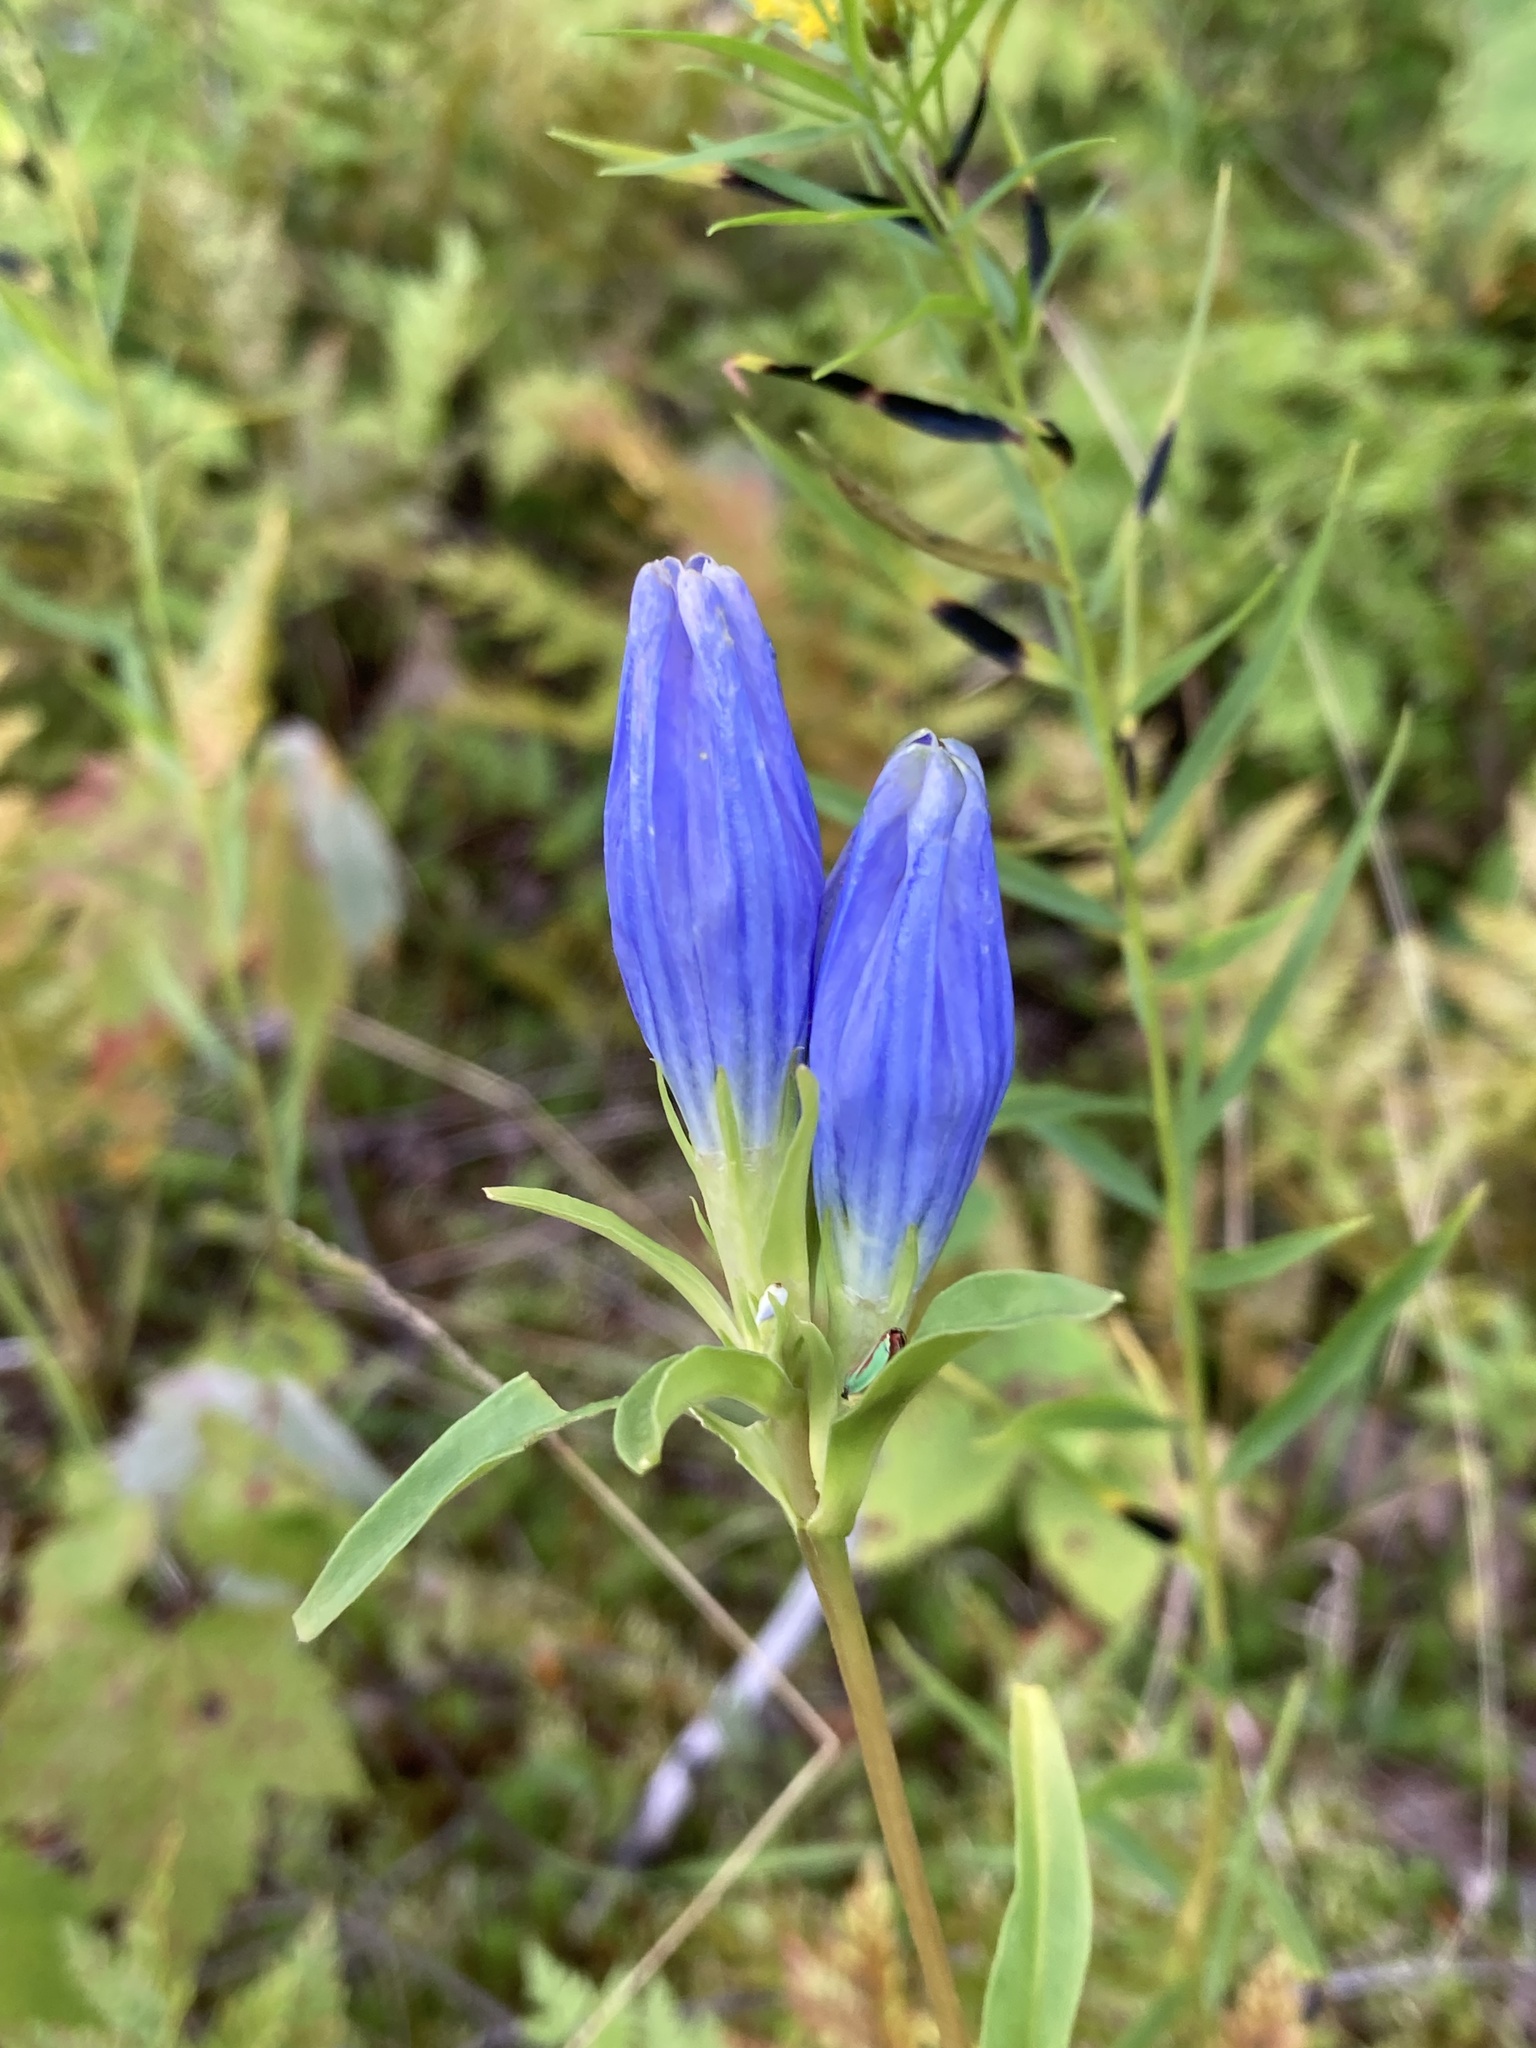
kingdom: Plantae
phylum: Tracheophyta
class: Magnoliopsida
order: Gentianales
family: Gentianaceae
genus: Gentiana
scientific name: Gentiana linearis
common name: Bastard gentian
